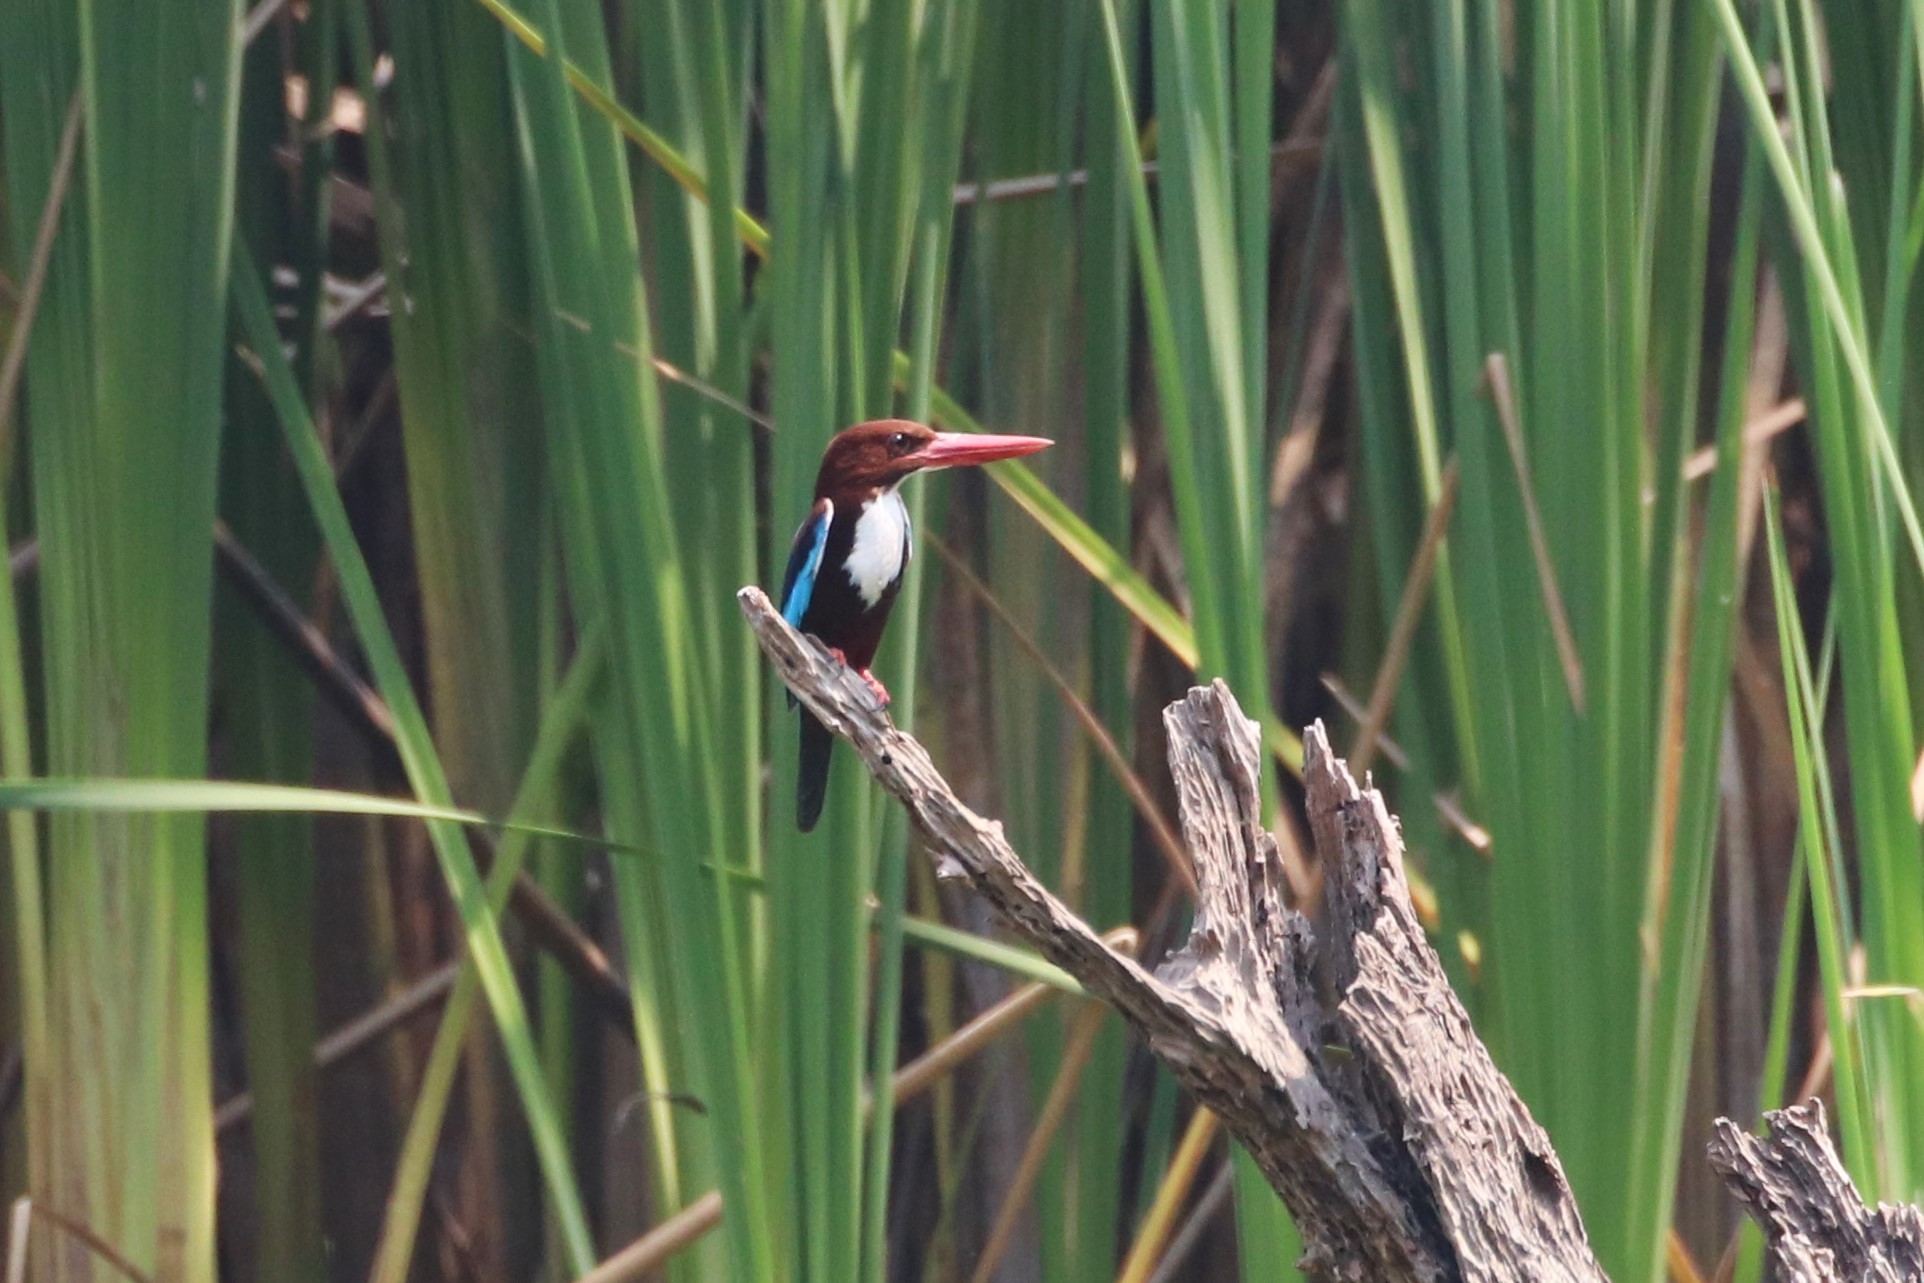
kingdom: Animalia
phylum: Chordata
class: Aves
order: Coraciiformes
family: Alcedinidae
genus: Halcyon
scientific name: Halcyon smyrnensis
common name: White-throated kingfisher
